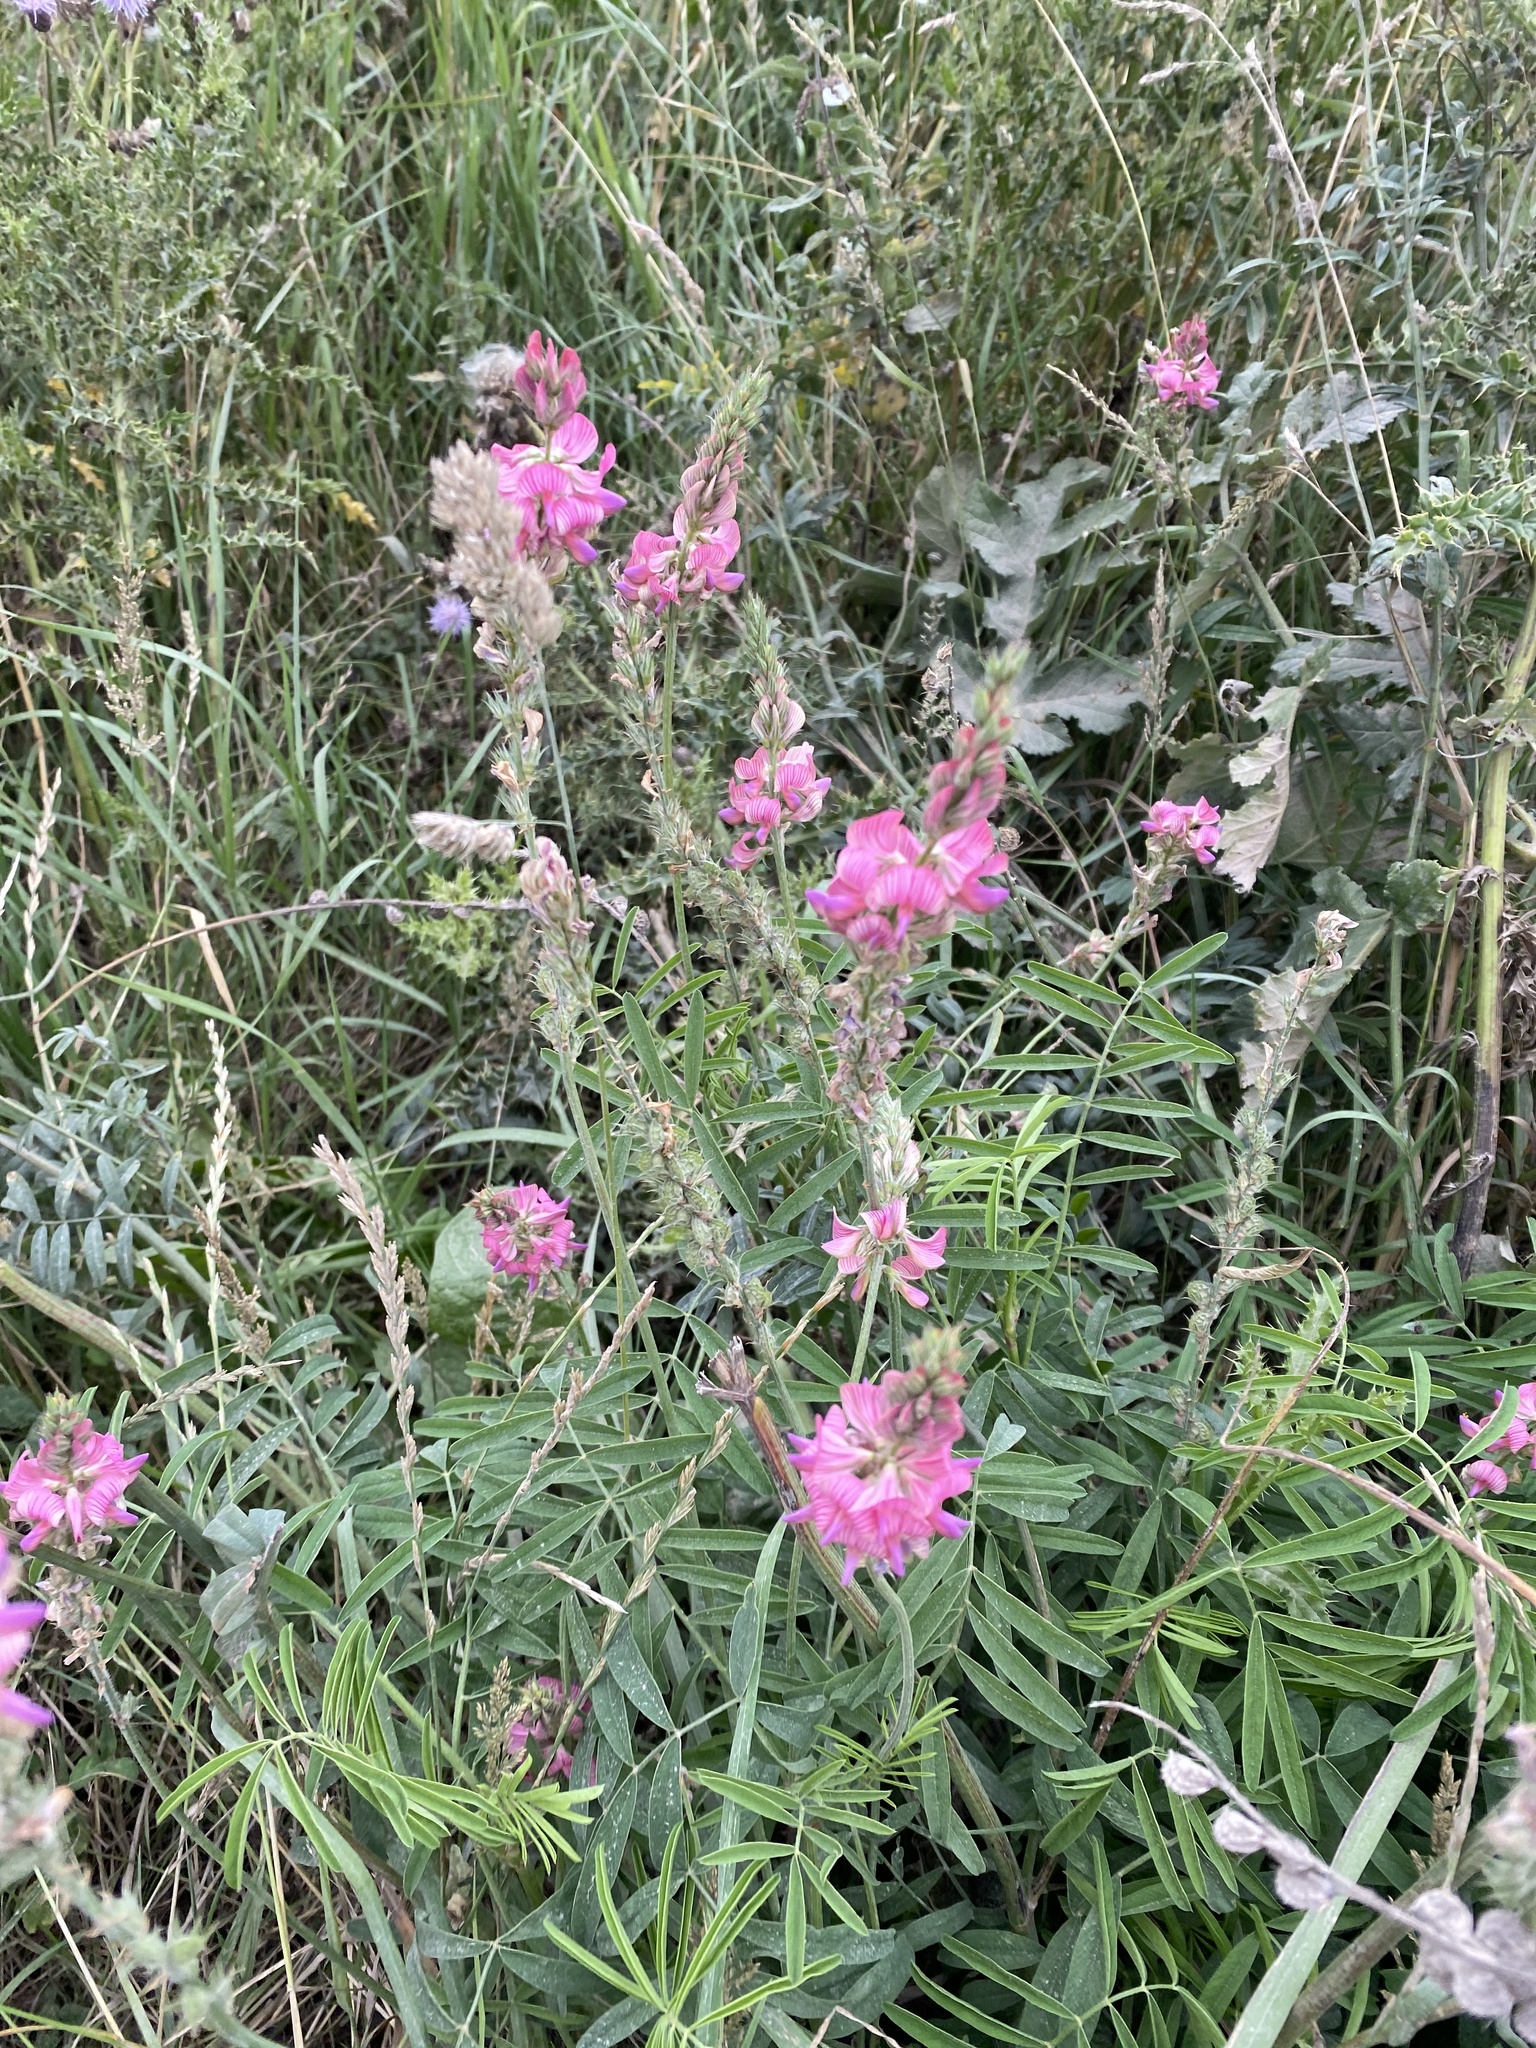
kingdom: Plantae
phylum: Tracheophyta
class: Magnoliopsida
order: Fabales
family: Fabaceae
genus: Onobrychis
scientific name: Onobrychis viciifolia
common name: Sainfoin
